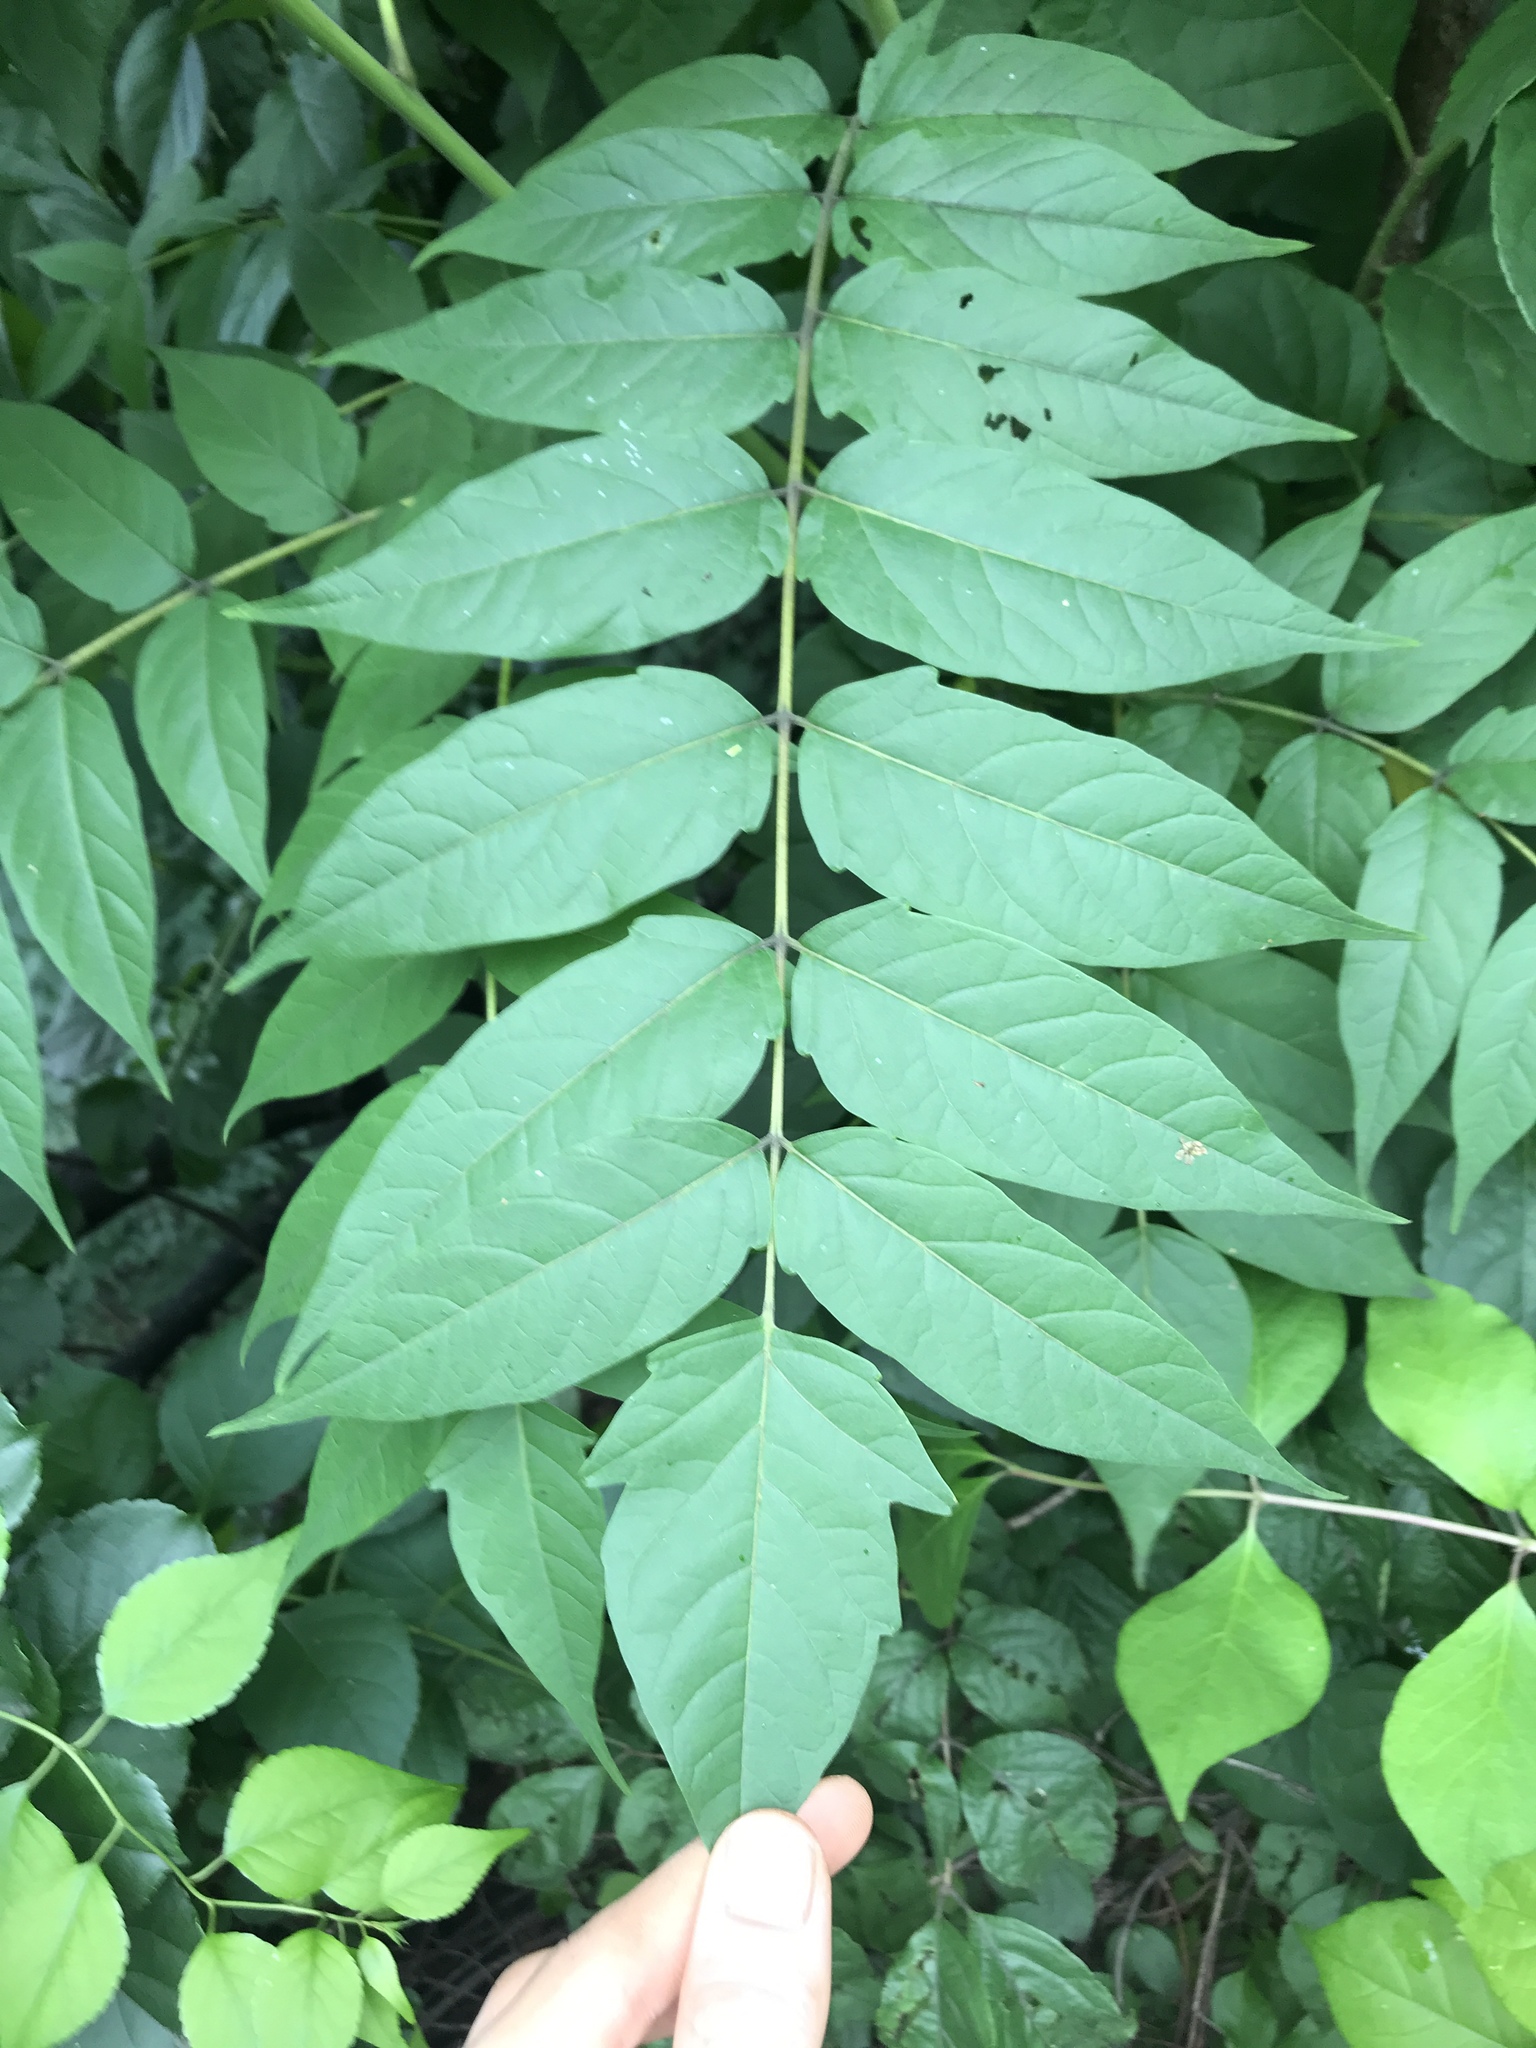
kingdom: Plantae
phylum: Tracheophyta
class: Magnoliopsida
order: Sapindales
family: Simaroubaceae
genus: Ailanthus
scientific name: Ailanthus altissima
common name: Tree-of-heaven
